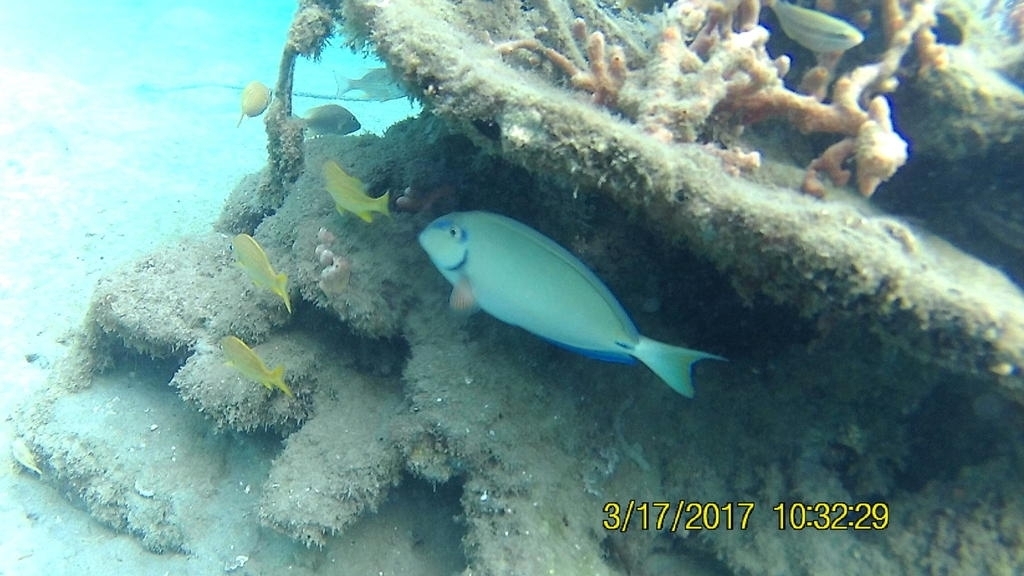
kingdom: Animalia
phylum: Chordata
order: Perciformes
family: Acanthuridae
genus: Acanthurus
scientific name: Acanthurus bahianus
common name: Ocean surgeon
